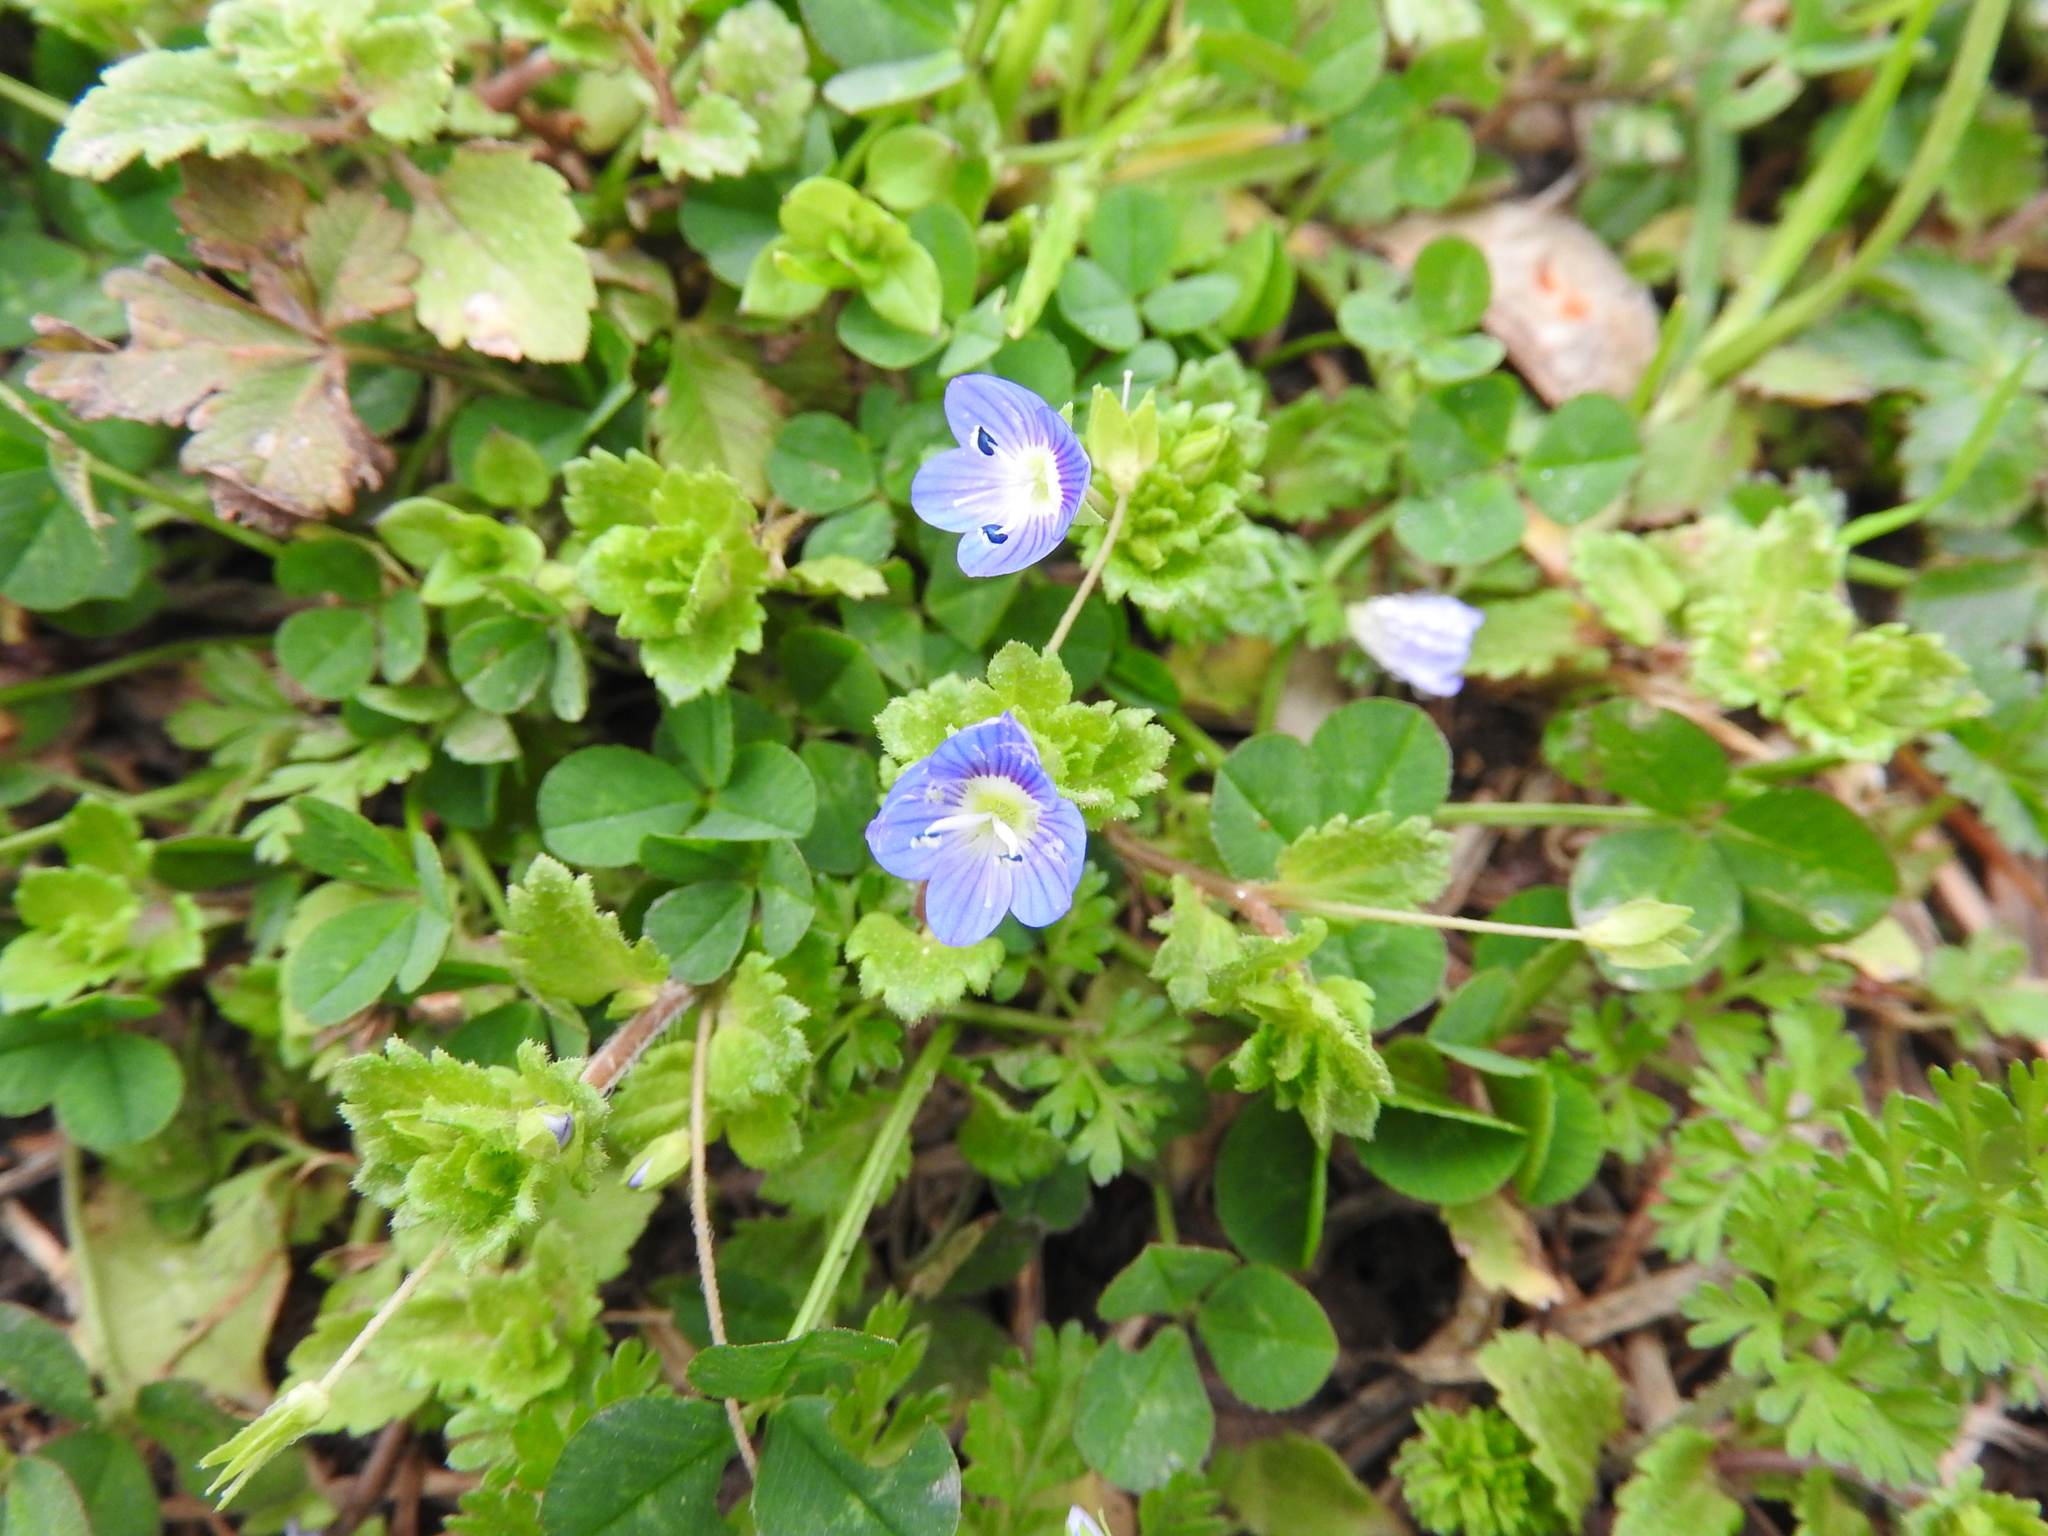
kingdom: Plantae
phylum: Tracheophyta
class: Magnoliopsida
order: Lamiales
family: Plantaginaceae
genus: Veronica
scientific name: Veronica persica
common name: Common field-speedwell
